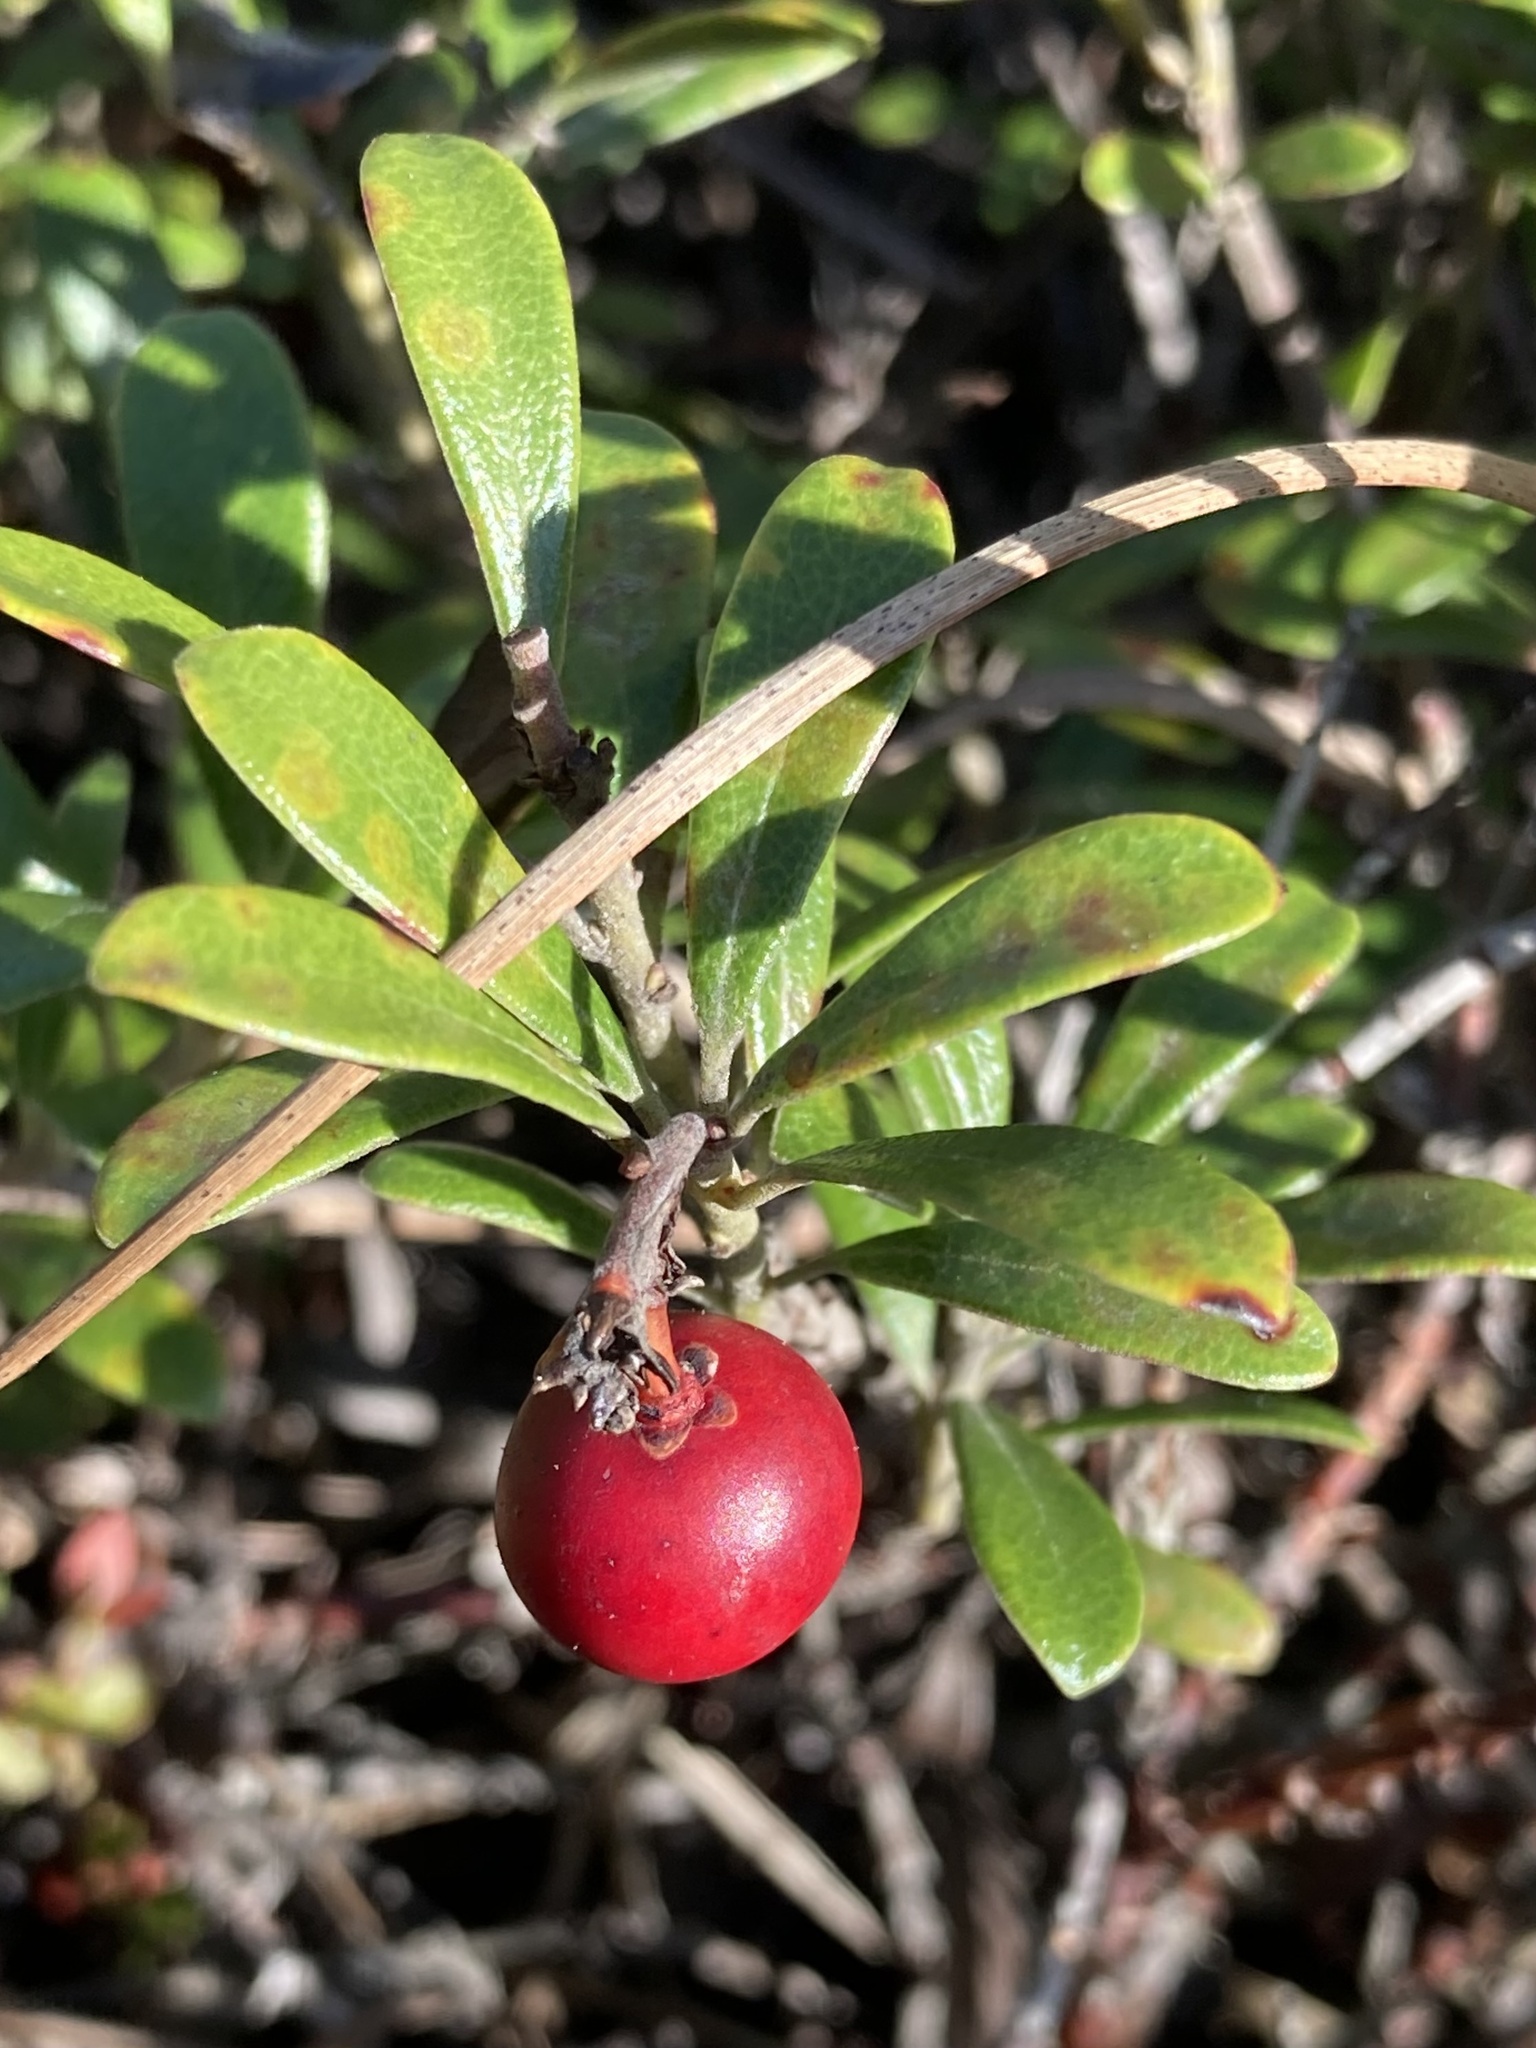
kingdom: Plantae
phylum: Tracheophyta
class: Magnoliopsida
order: Ericales
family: Ericaceae
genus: Arctostaphylos
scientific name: Arctostaphylos uva-ursi
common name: Bearberry
